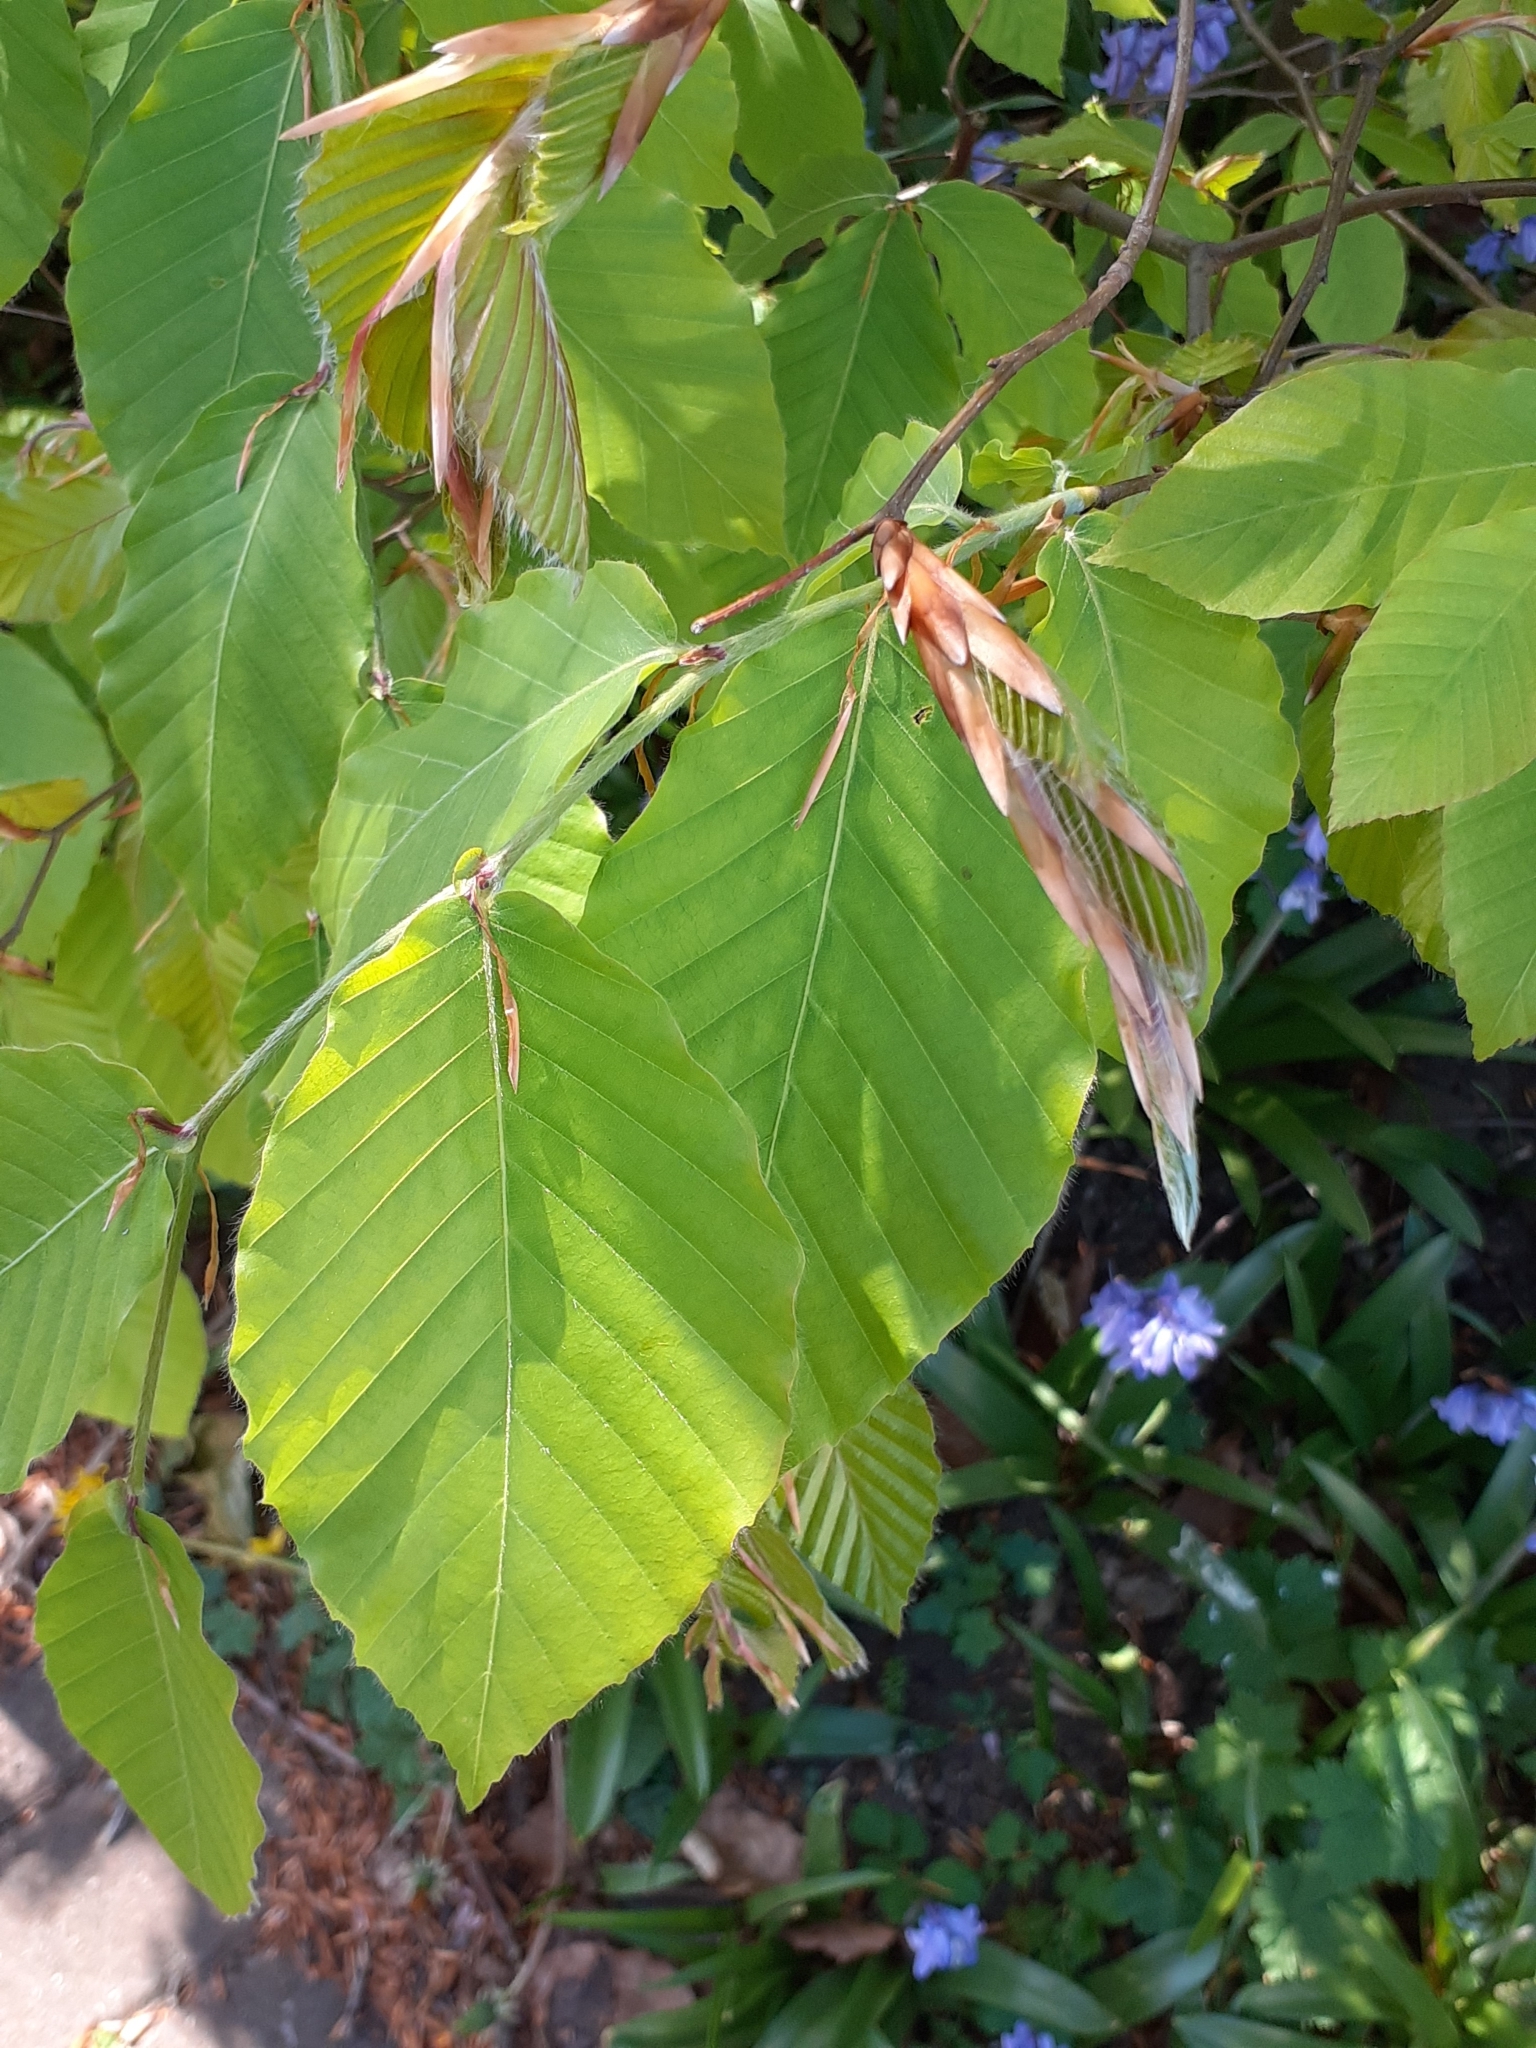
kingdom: Plantae
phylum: Tracheophyta
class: Magnoliopsida
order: Fagales
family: Fagaceae
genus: Fagus
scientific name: Fagus sylvatica
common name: Beech
